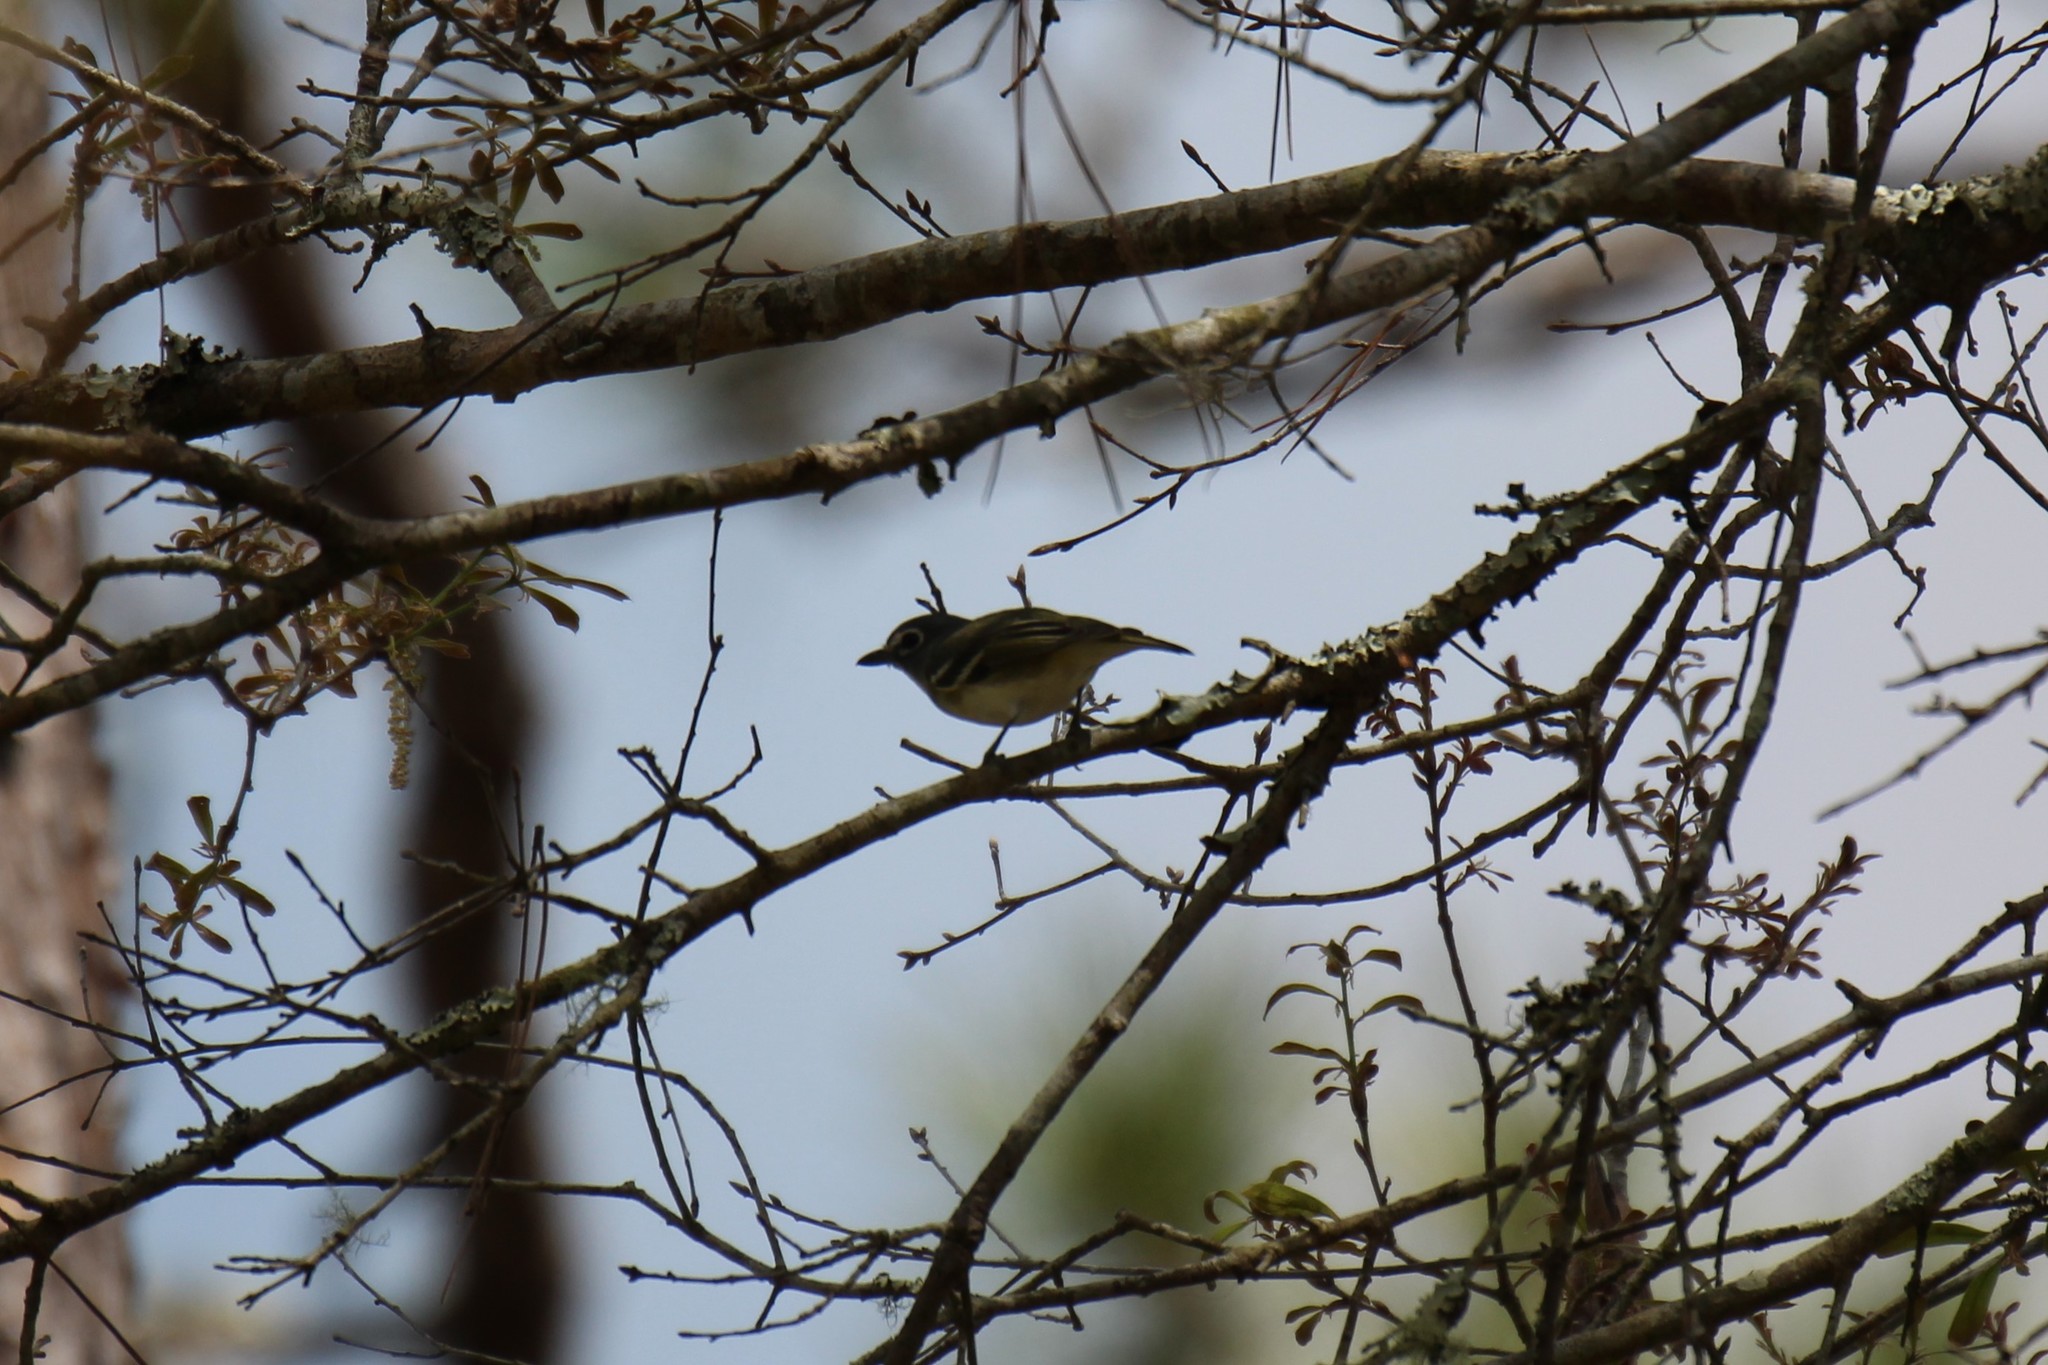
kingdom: Animalia
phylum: Chordata
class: Aves
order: Passeriformes
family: Vireonidae
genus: Vireo
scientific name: Vireo solitarius
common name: Blue-headed vireo
